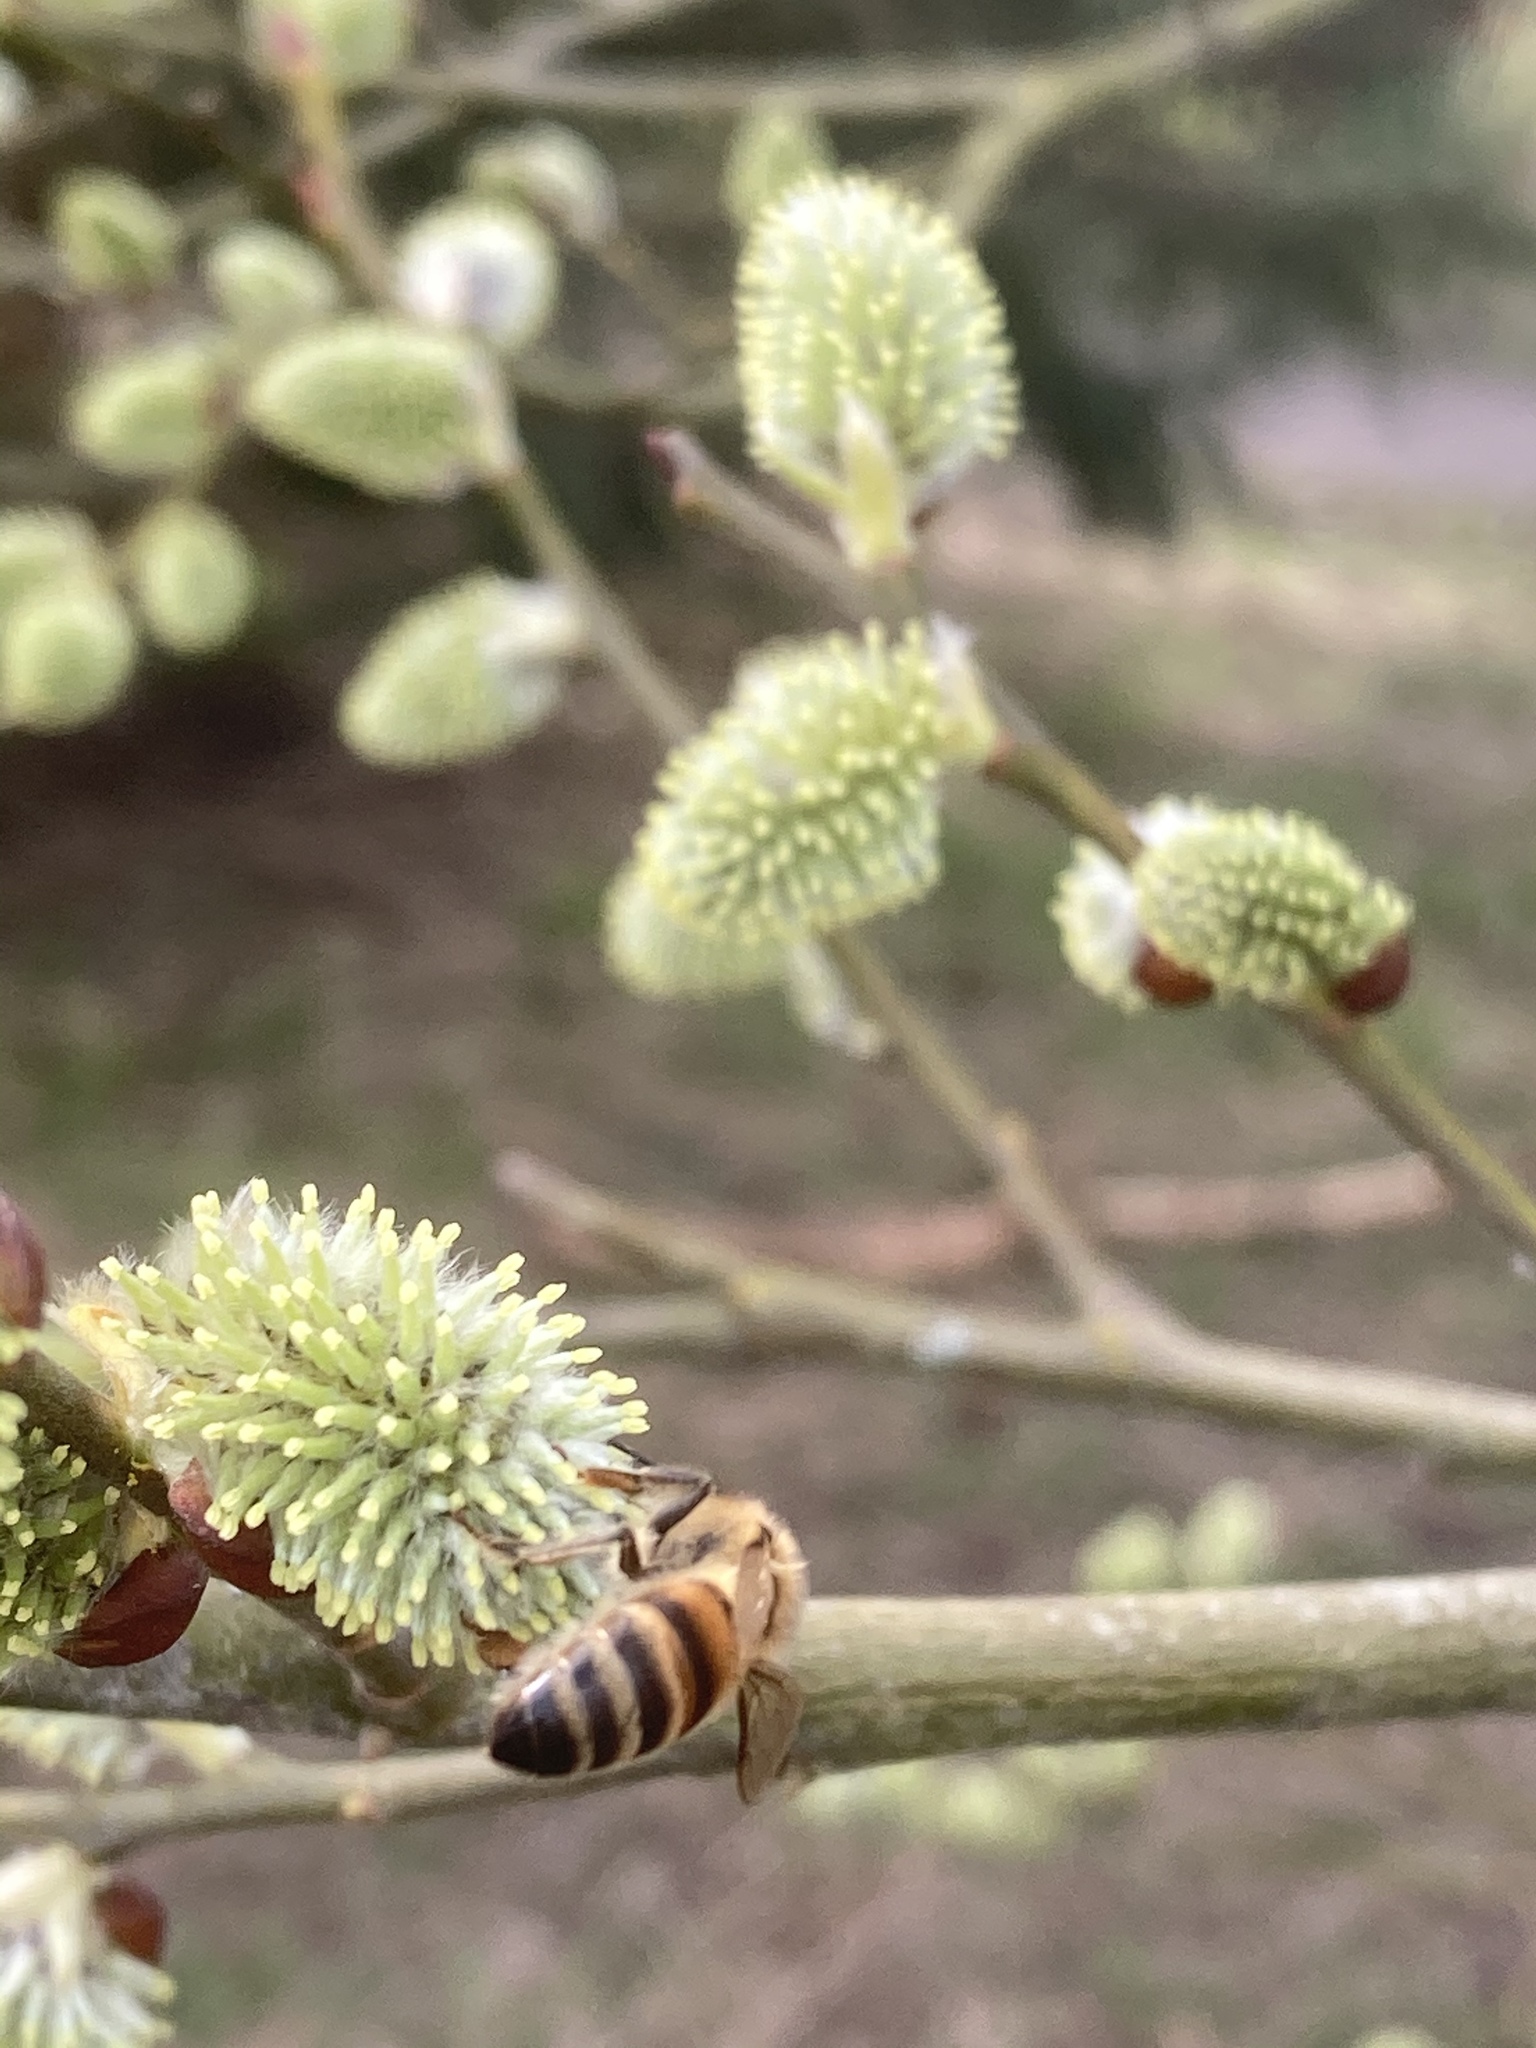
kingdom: Animalia
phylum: Arthropoda
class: Insecta
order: Hymenoptera
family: Apidae
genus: Apis
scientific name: Apis mellifera
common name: Honey bee
